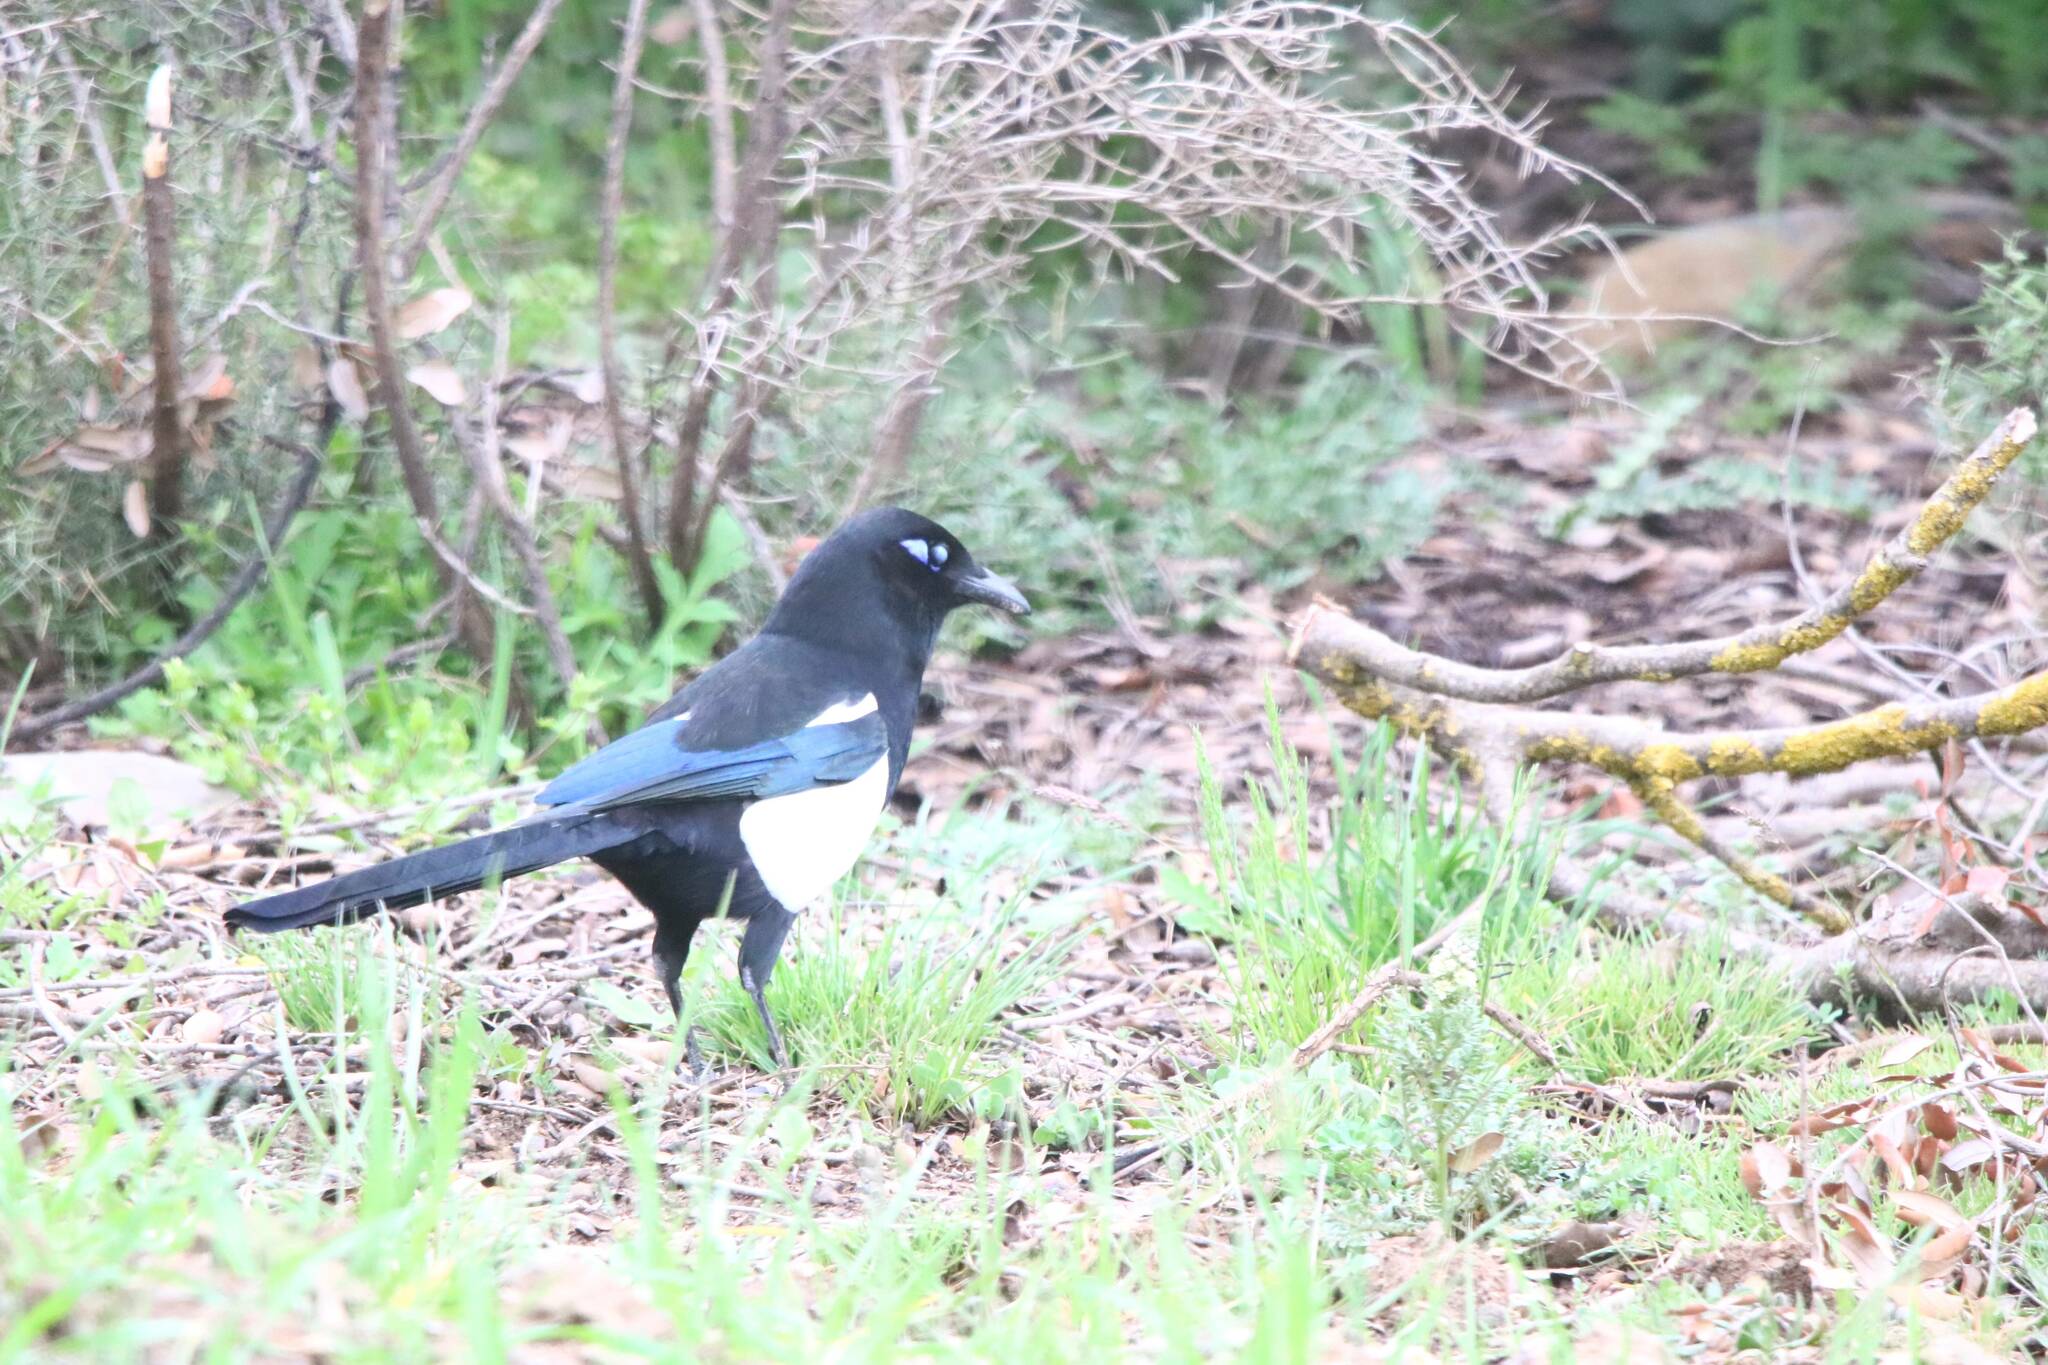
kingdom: Animalia
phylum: Chordata
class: Aves
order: Passeriformes
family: Corvidae
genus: Pica
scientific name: Pica mauritanica
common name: Maghreb magpie
